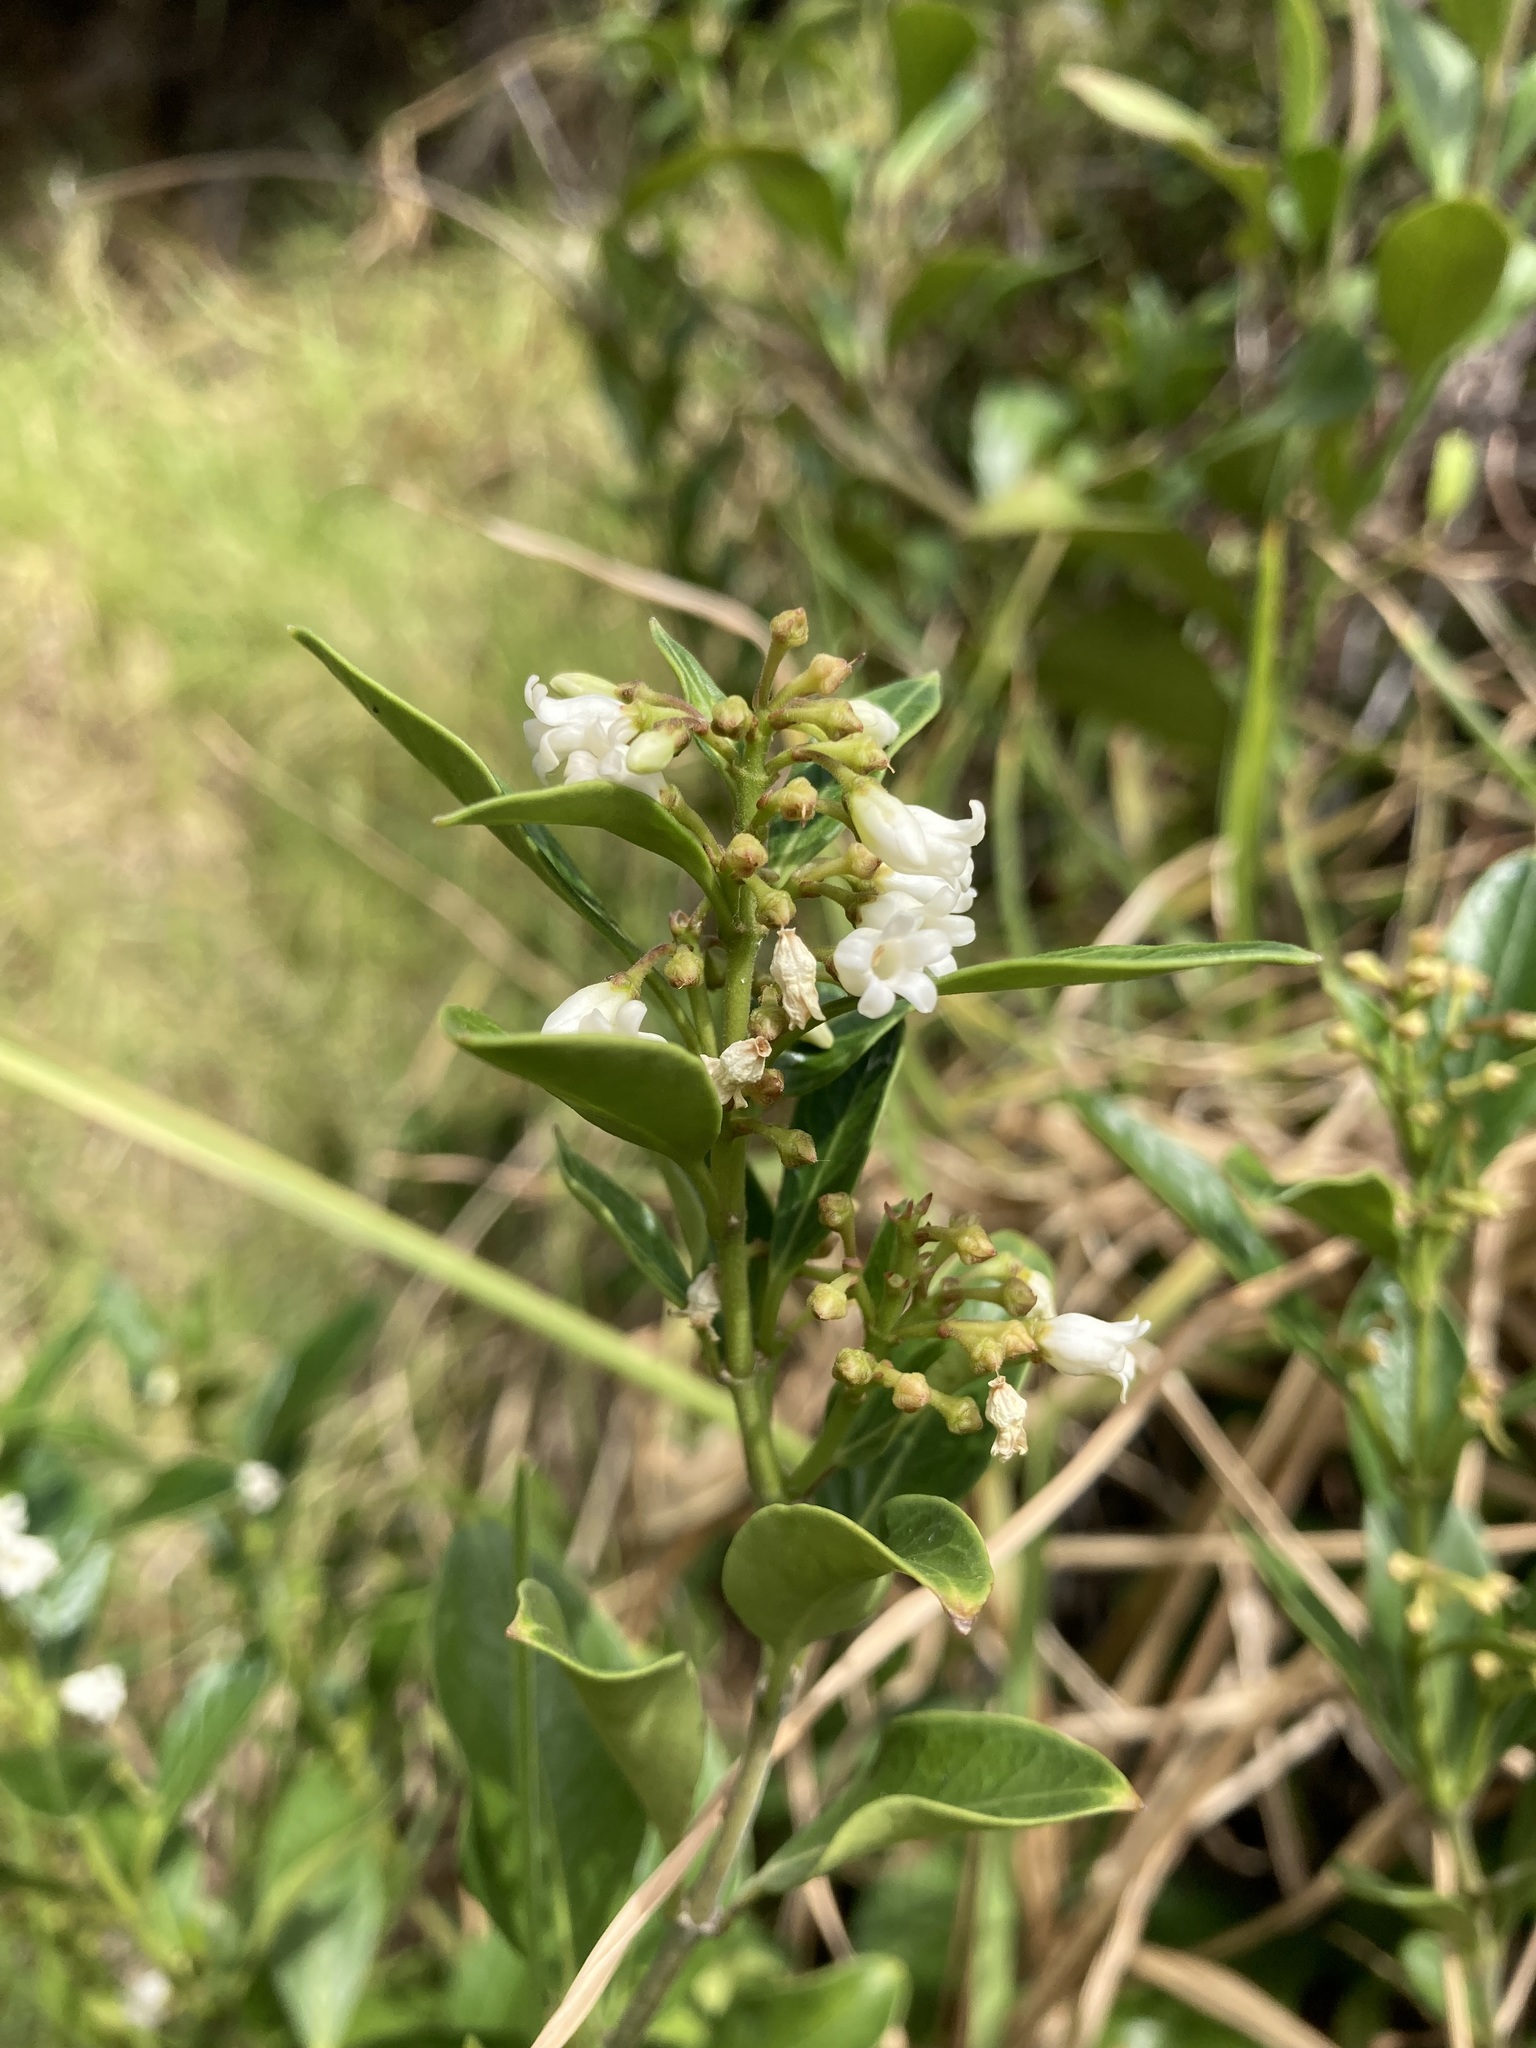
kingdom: Plantae
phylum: Tracheophyta
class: Magnoliopsida
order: Gentianales
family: Apocynaceae
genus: Parsonsia
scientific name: Parsonsia heterophylla
